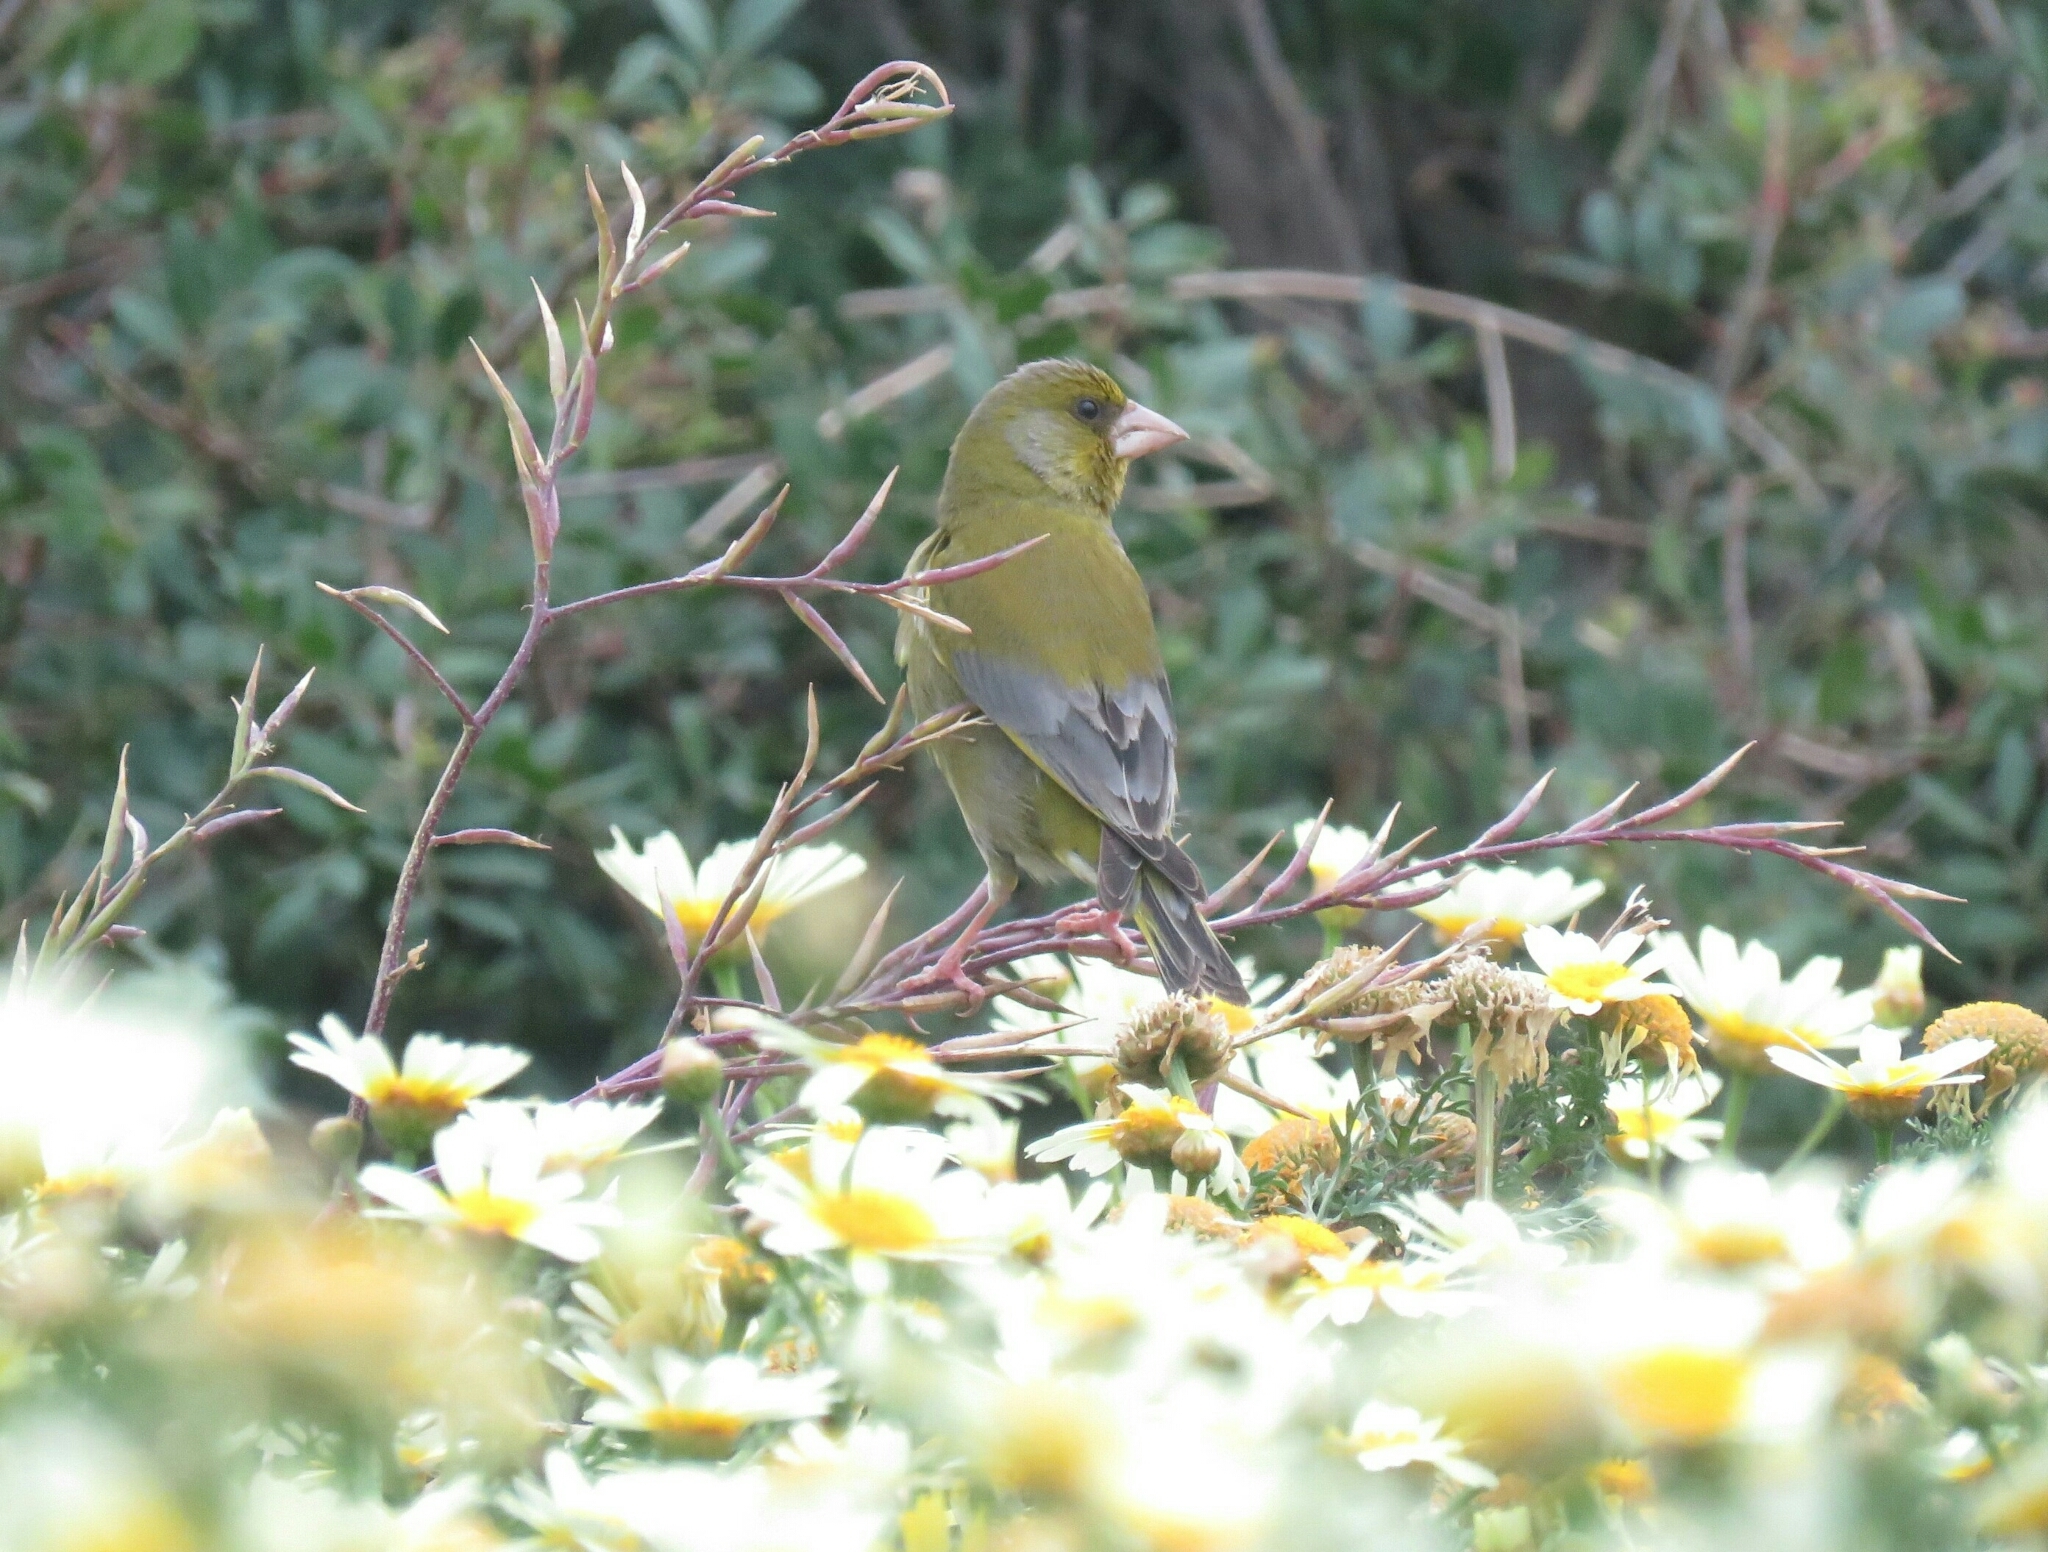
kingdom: Plantae
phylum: Tracheophyta
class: Liliopsida
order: Poales
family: Poaceae
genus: Chloris
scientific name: Chloris chloris
